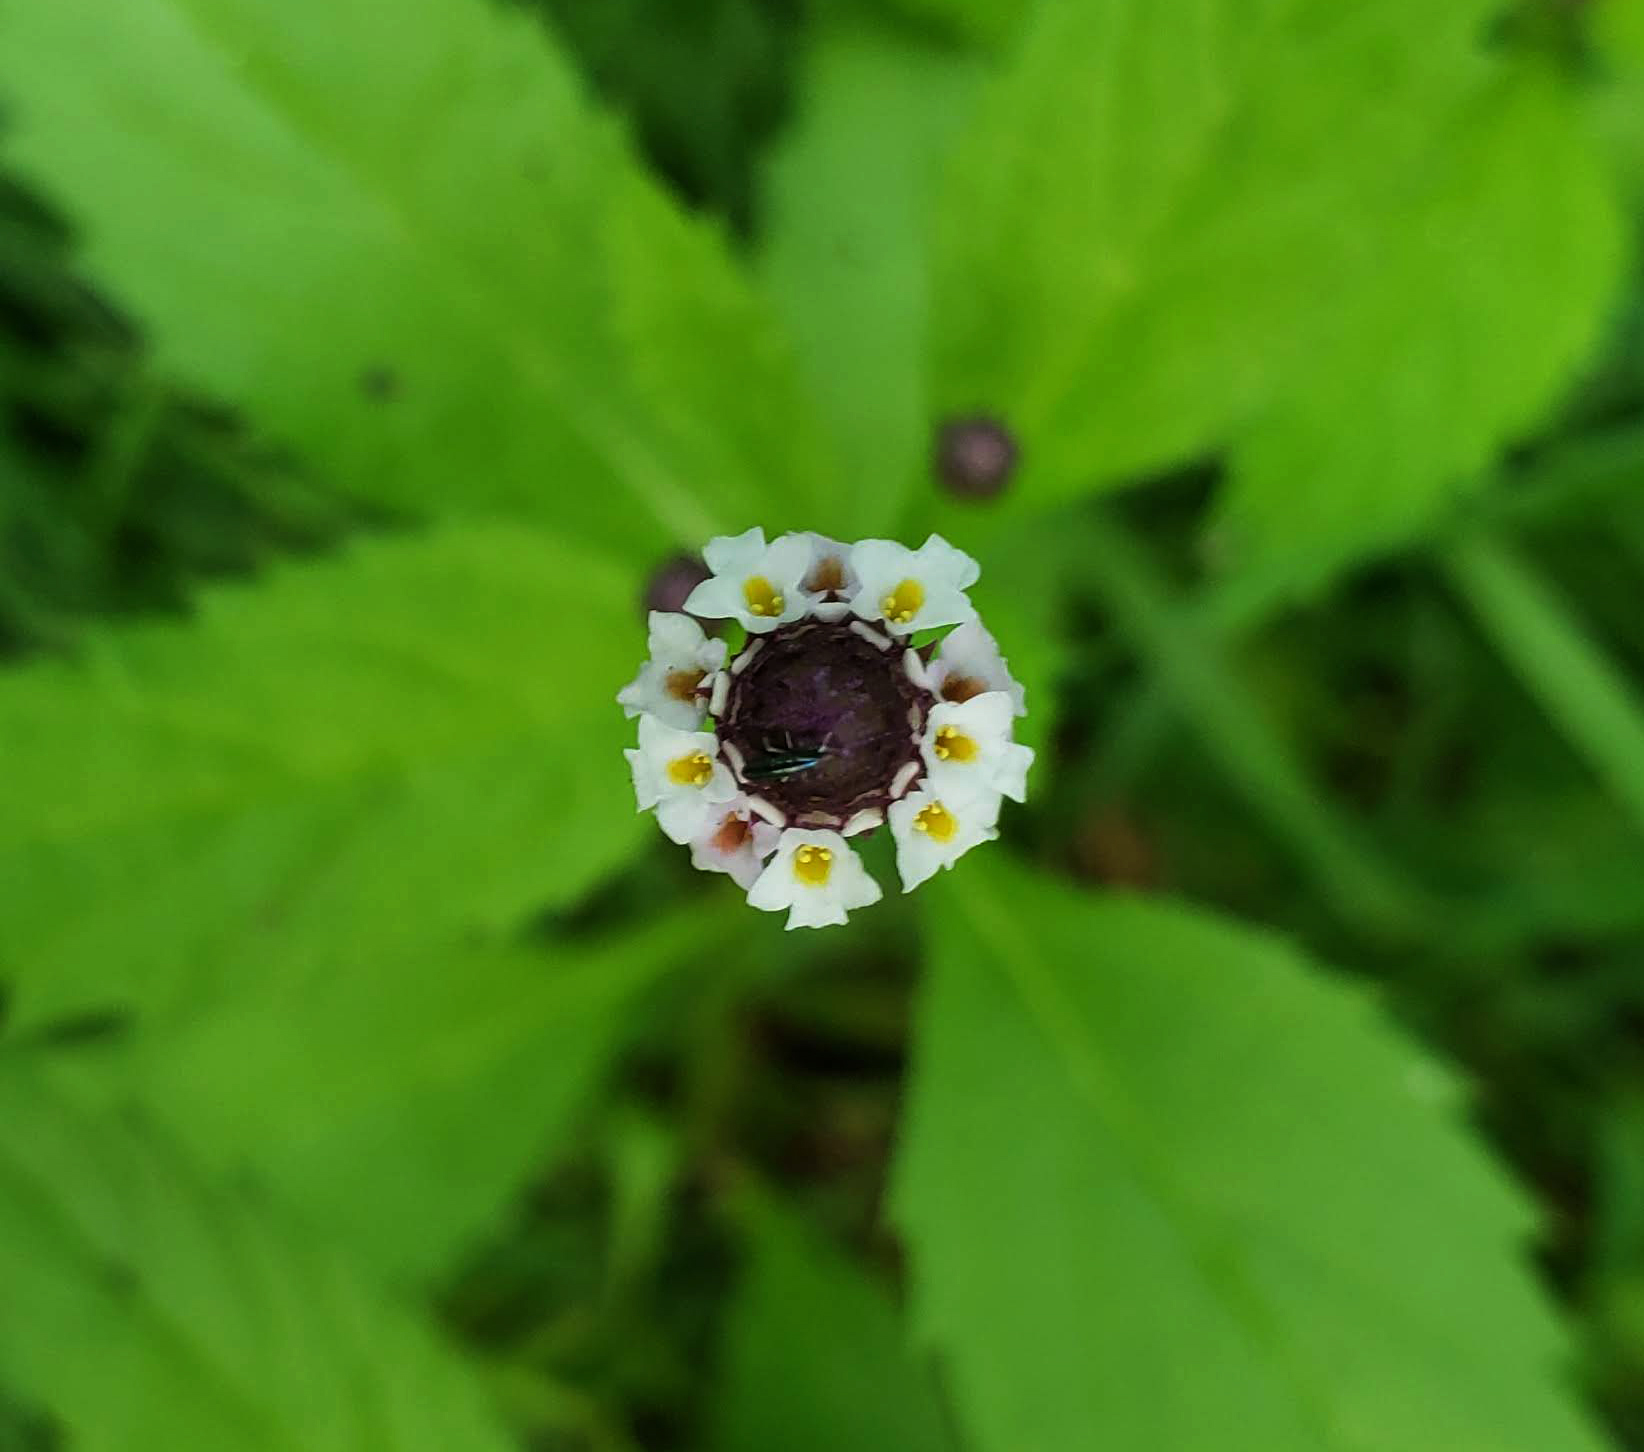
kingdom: Plantae
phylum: Tracheophyta
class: Magnoliopsida
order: Lamiales
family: Verbenaceae
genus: Phyla
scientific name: Phyla lanceolata
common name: Northern fogfruit
